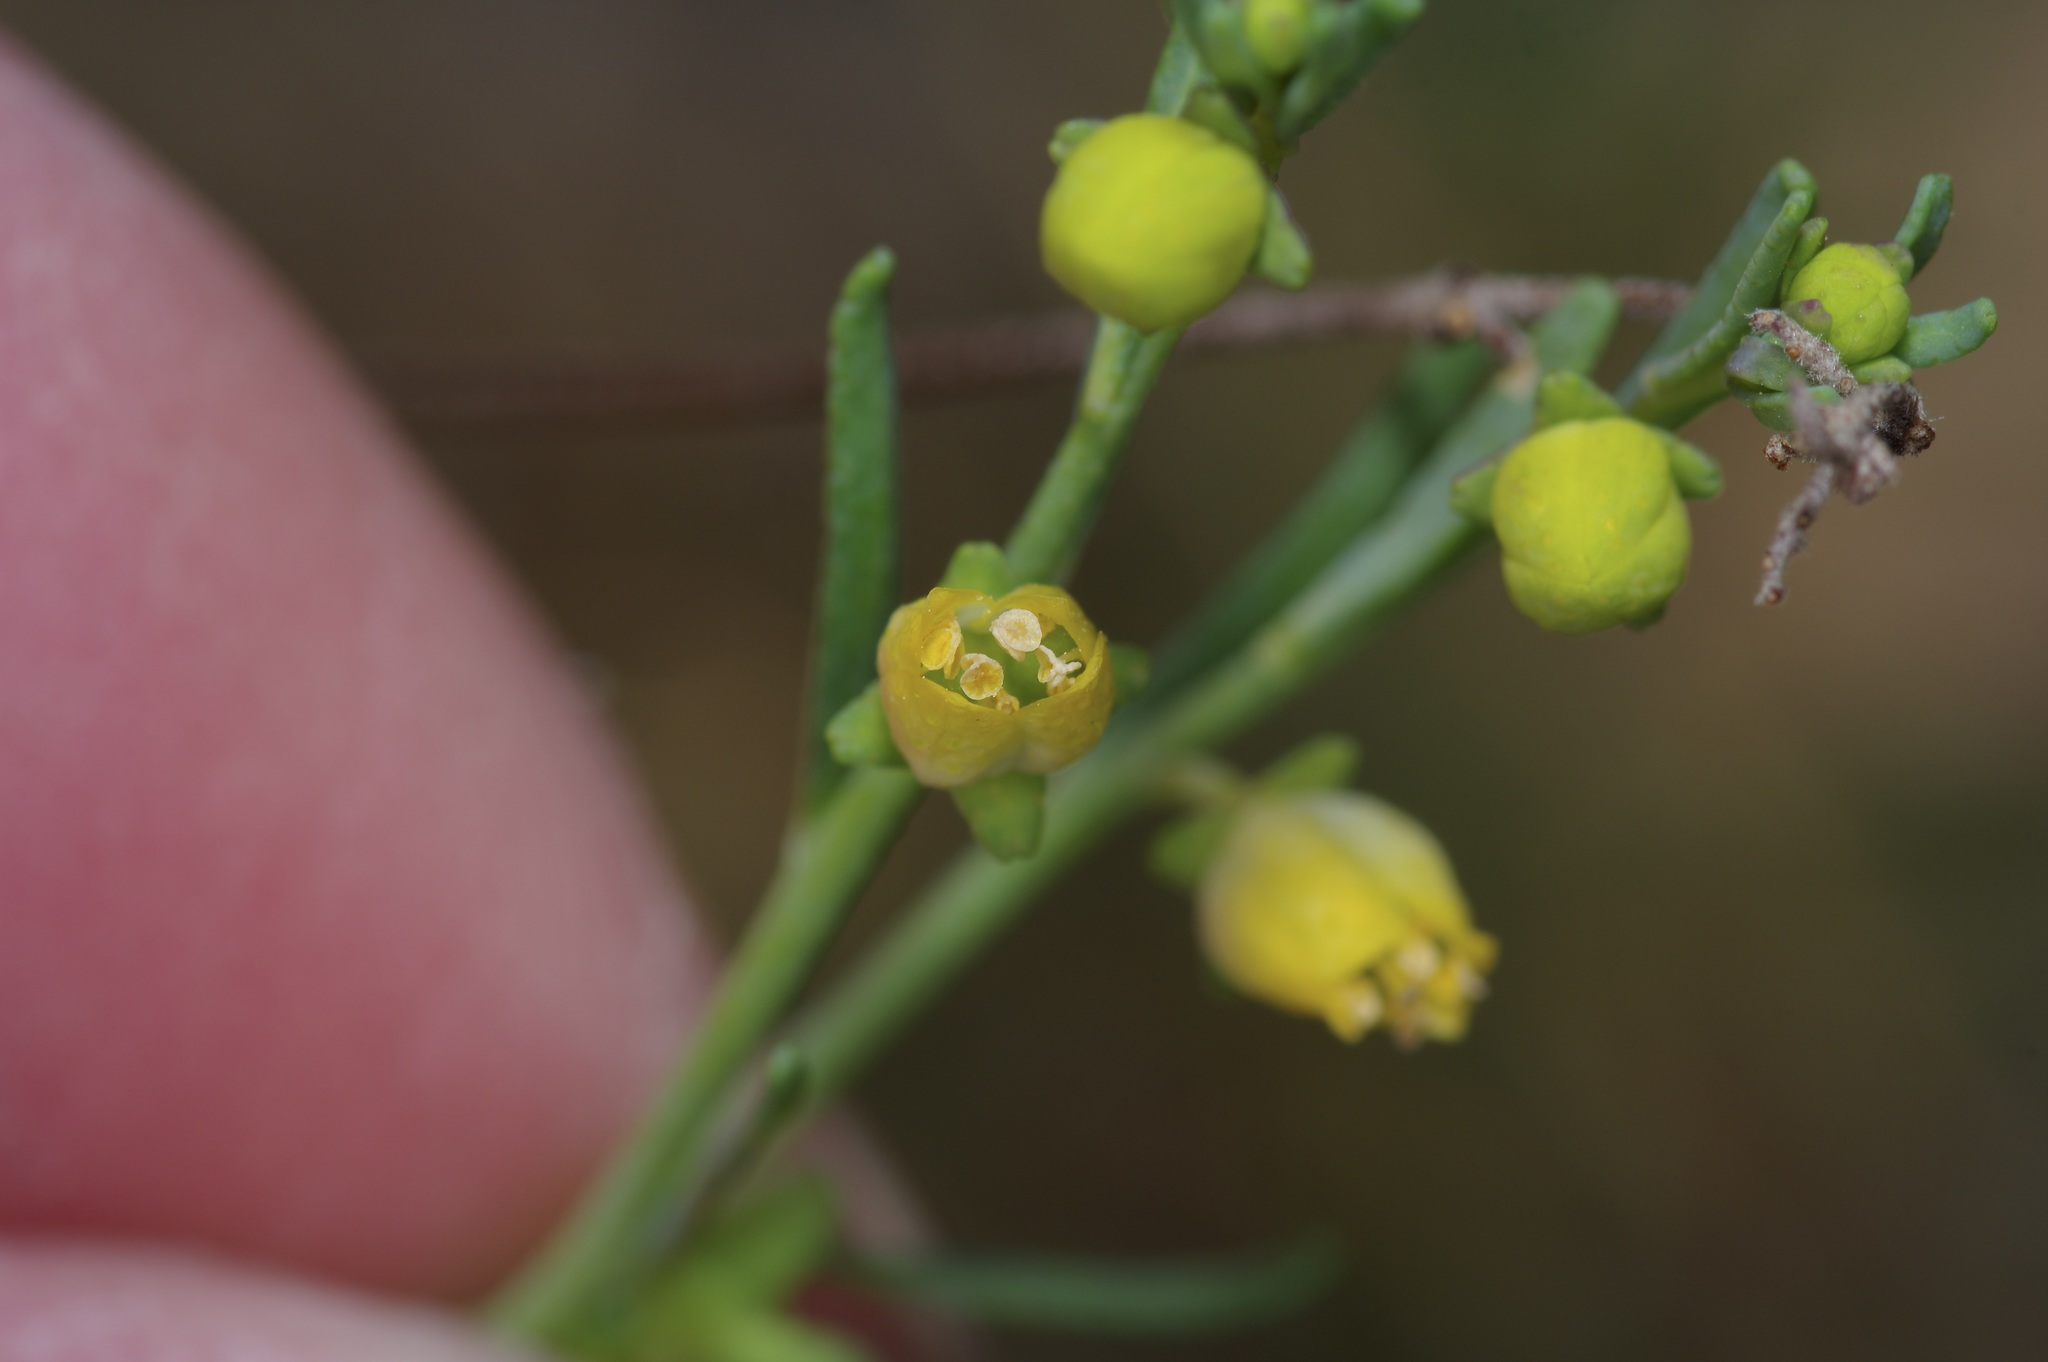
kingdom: Plantae
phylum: Tracheophyta
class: Magnoliopsida
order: Sapindales
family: Rutaceae
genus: Thamnosma
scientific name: Thamnosma texana
